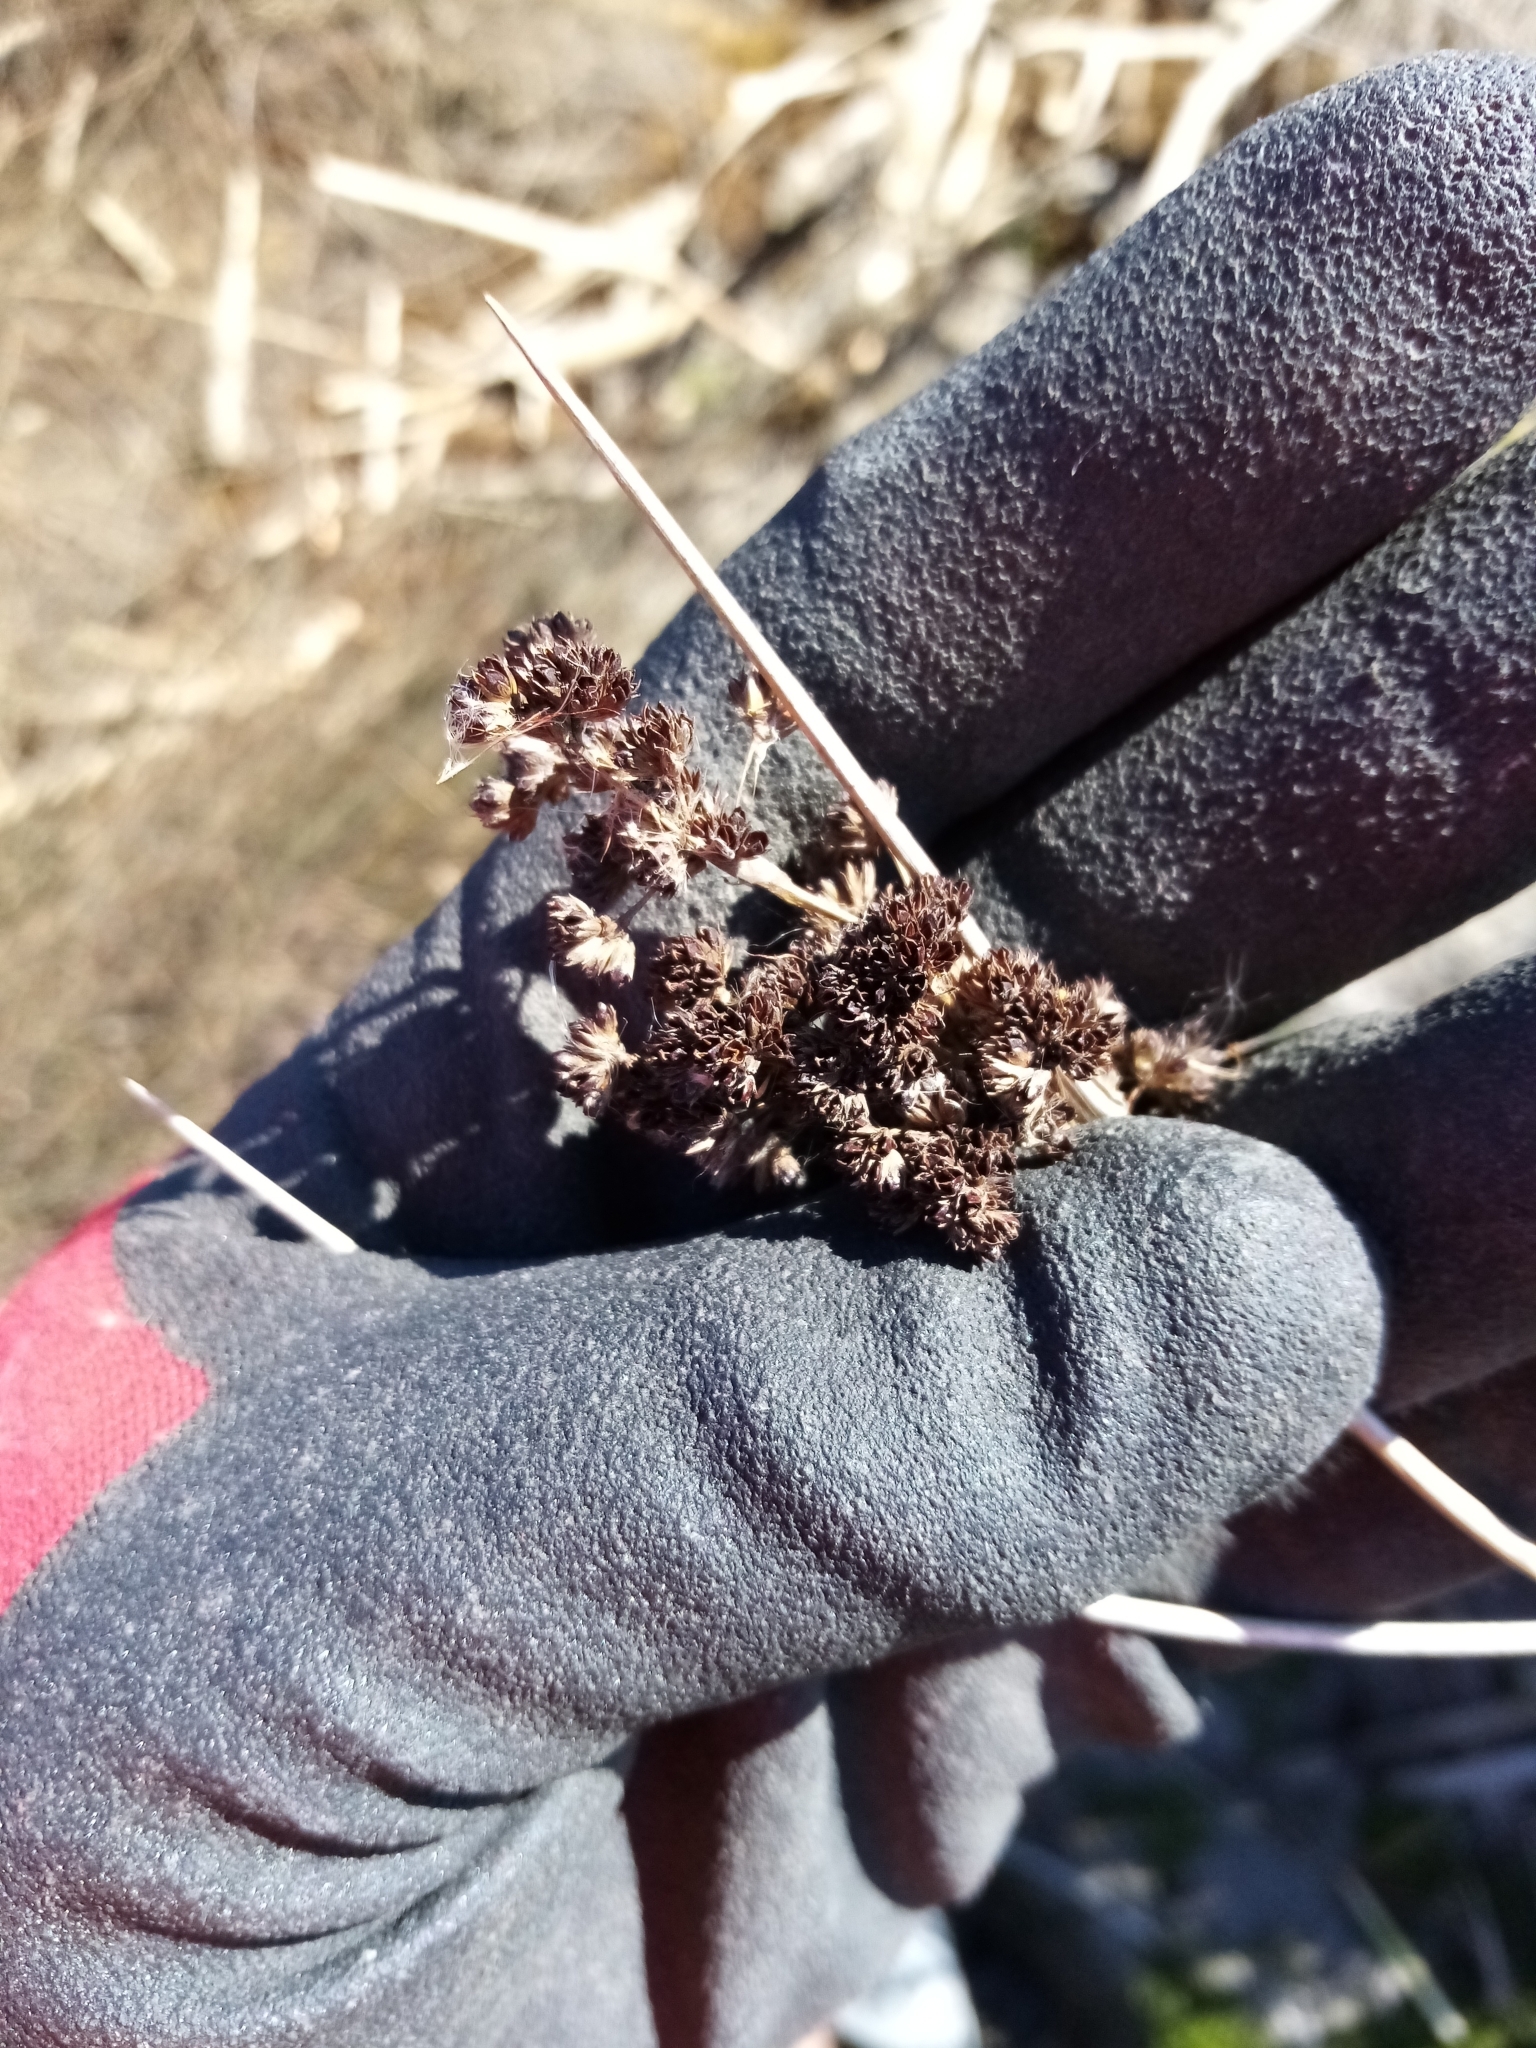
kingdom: Plantae
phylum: Tracheophyta
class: Liliopsida
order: Poales
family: Juncaceae
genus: Juncus
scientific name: Juncus kraussii
